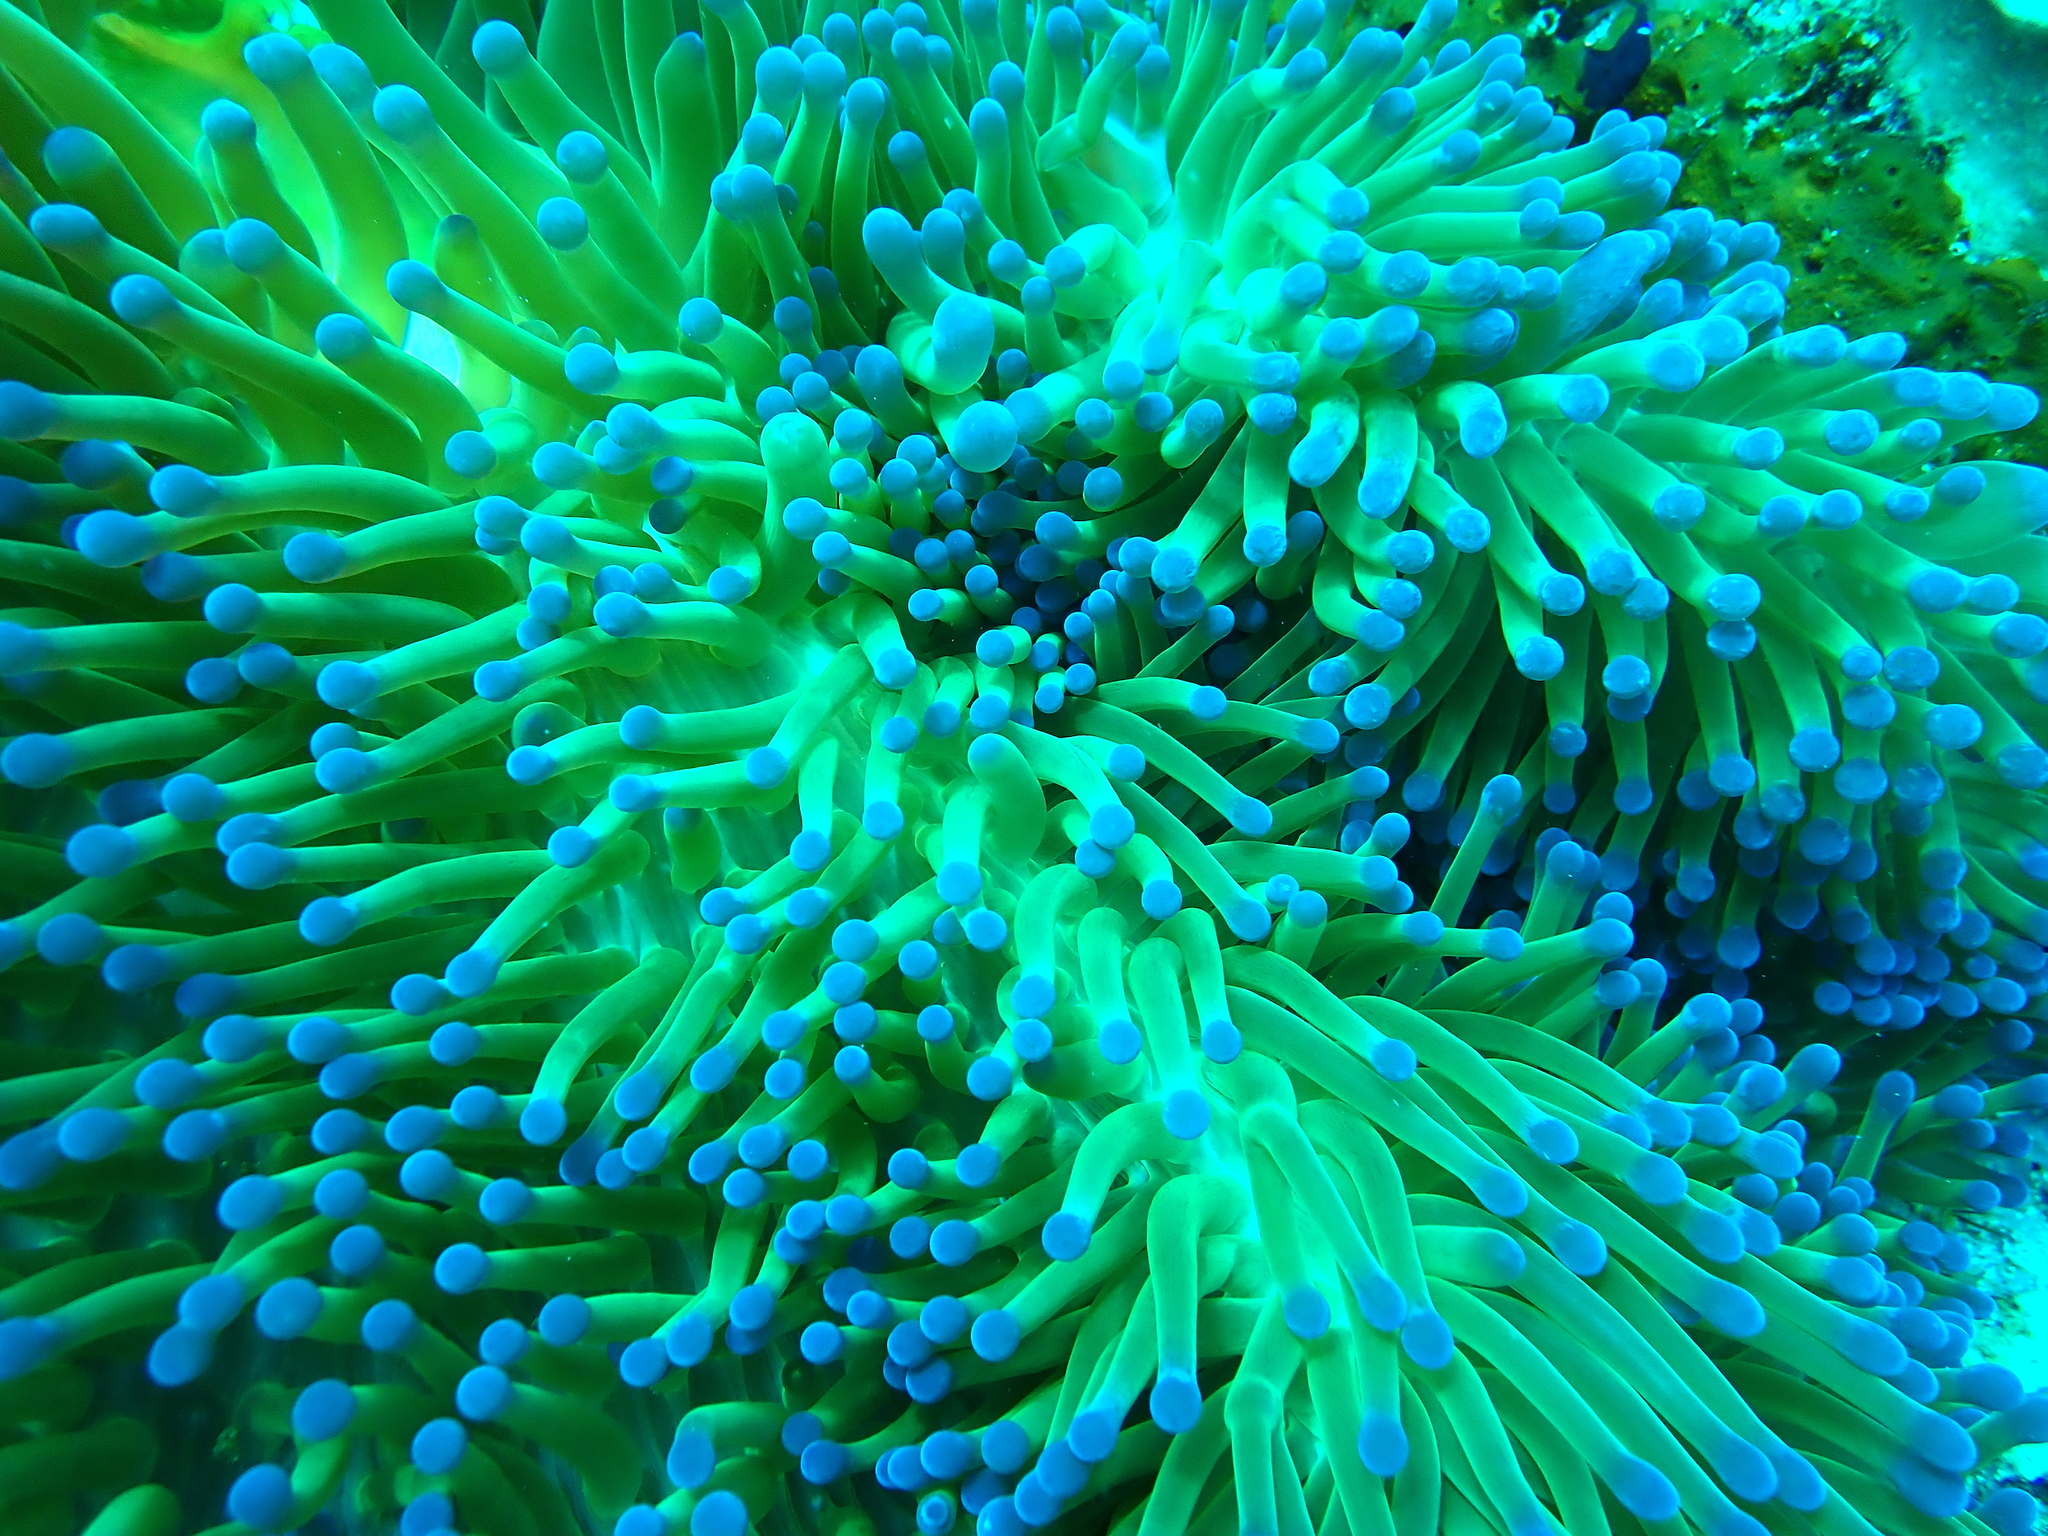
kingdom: Animalia
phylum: Cnidaria
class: Anthozoa
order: Actiniaria
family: Stichodactylidae
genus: Radianthus
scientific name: Radianthus magnifica
